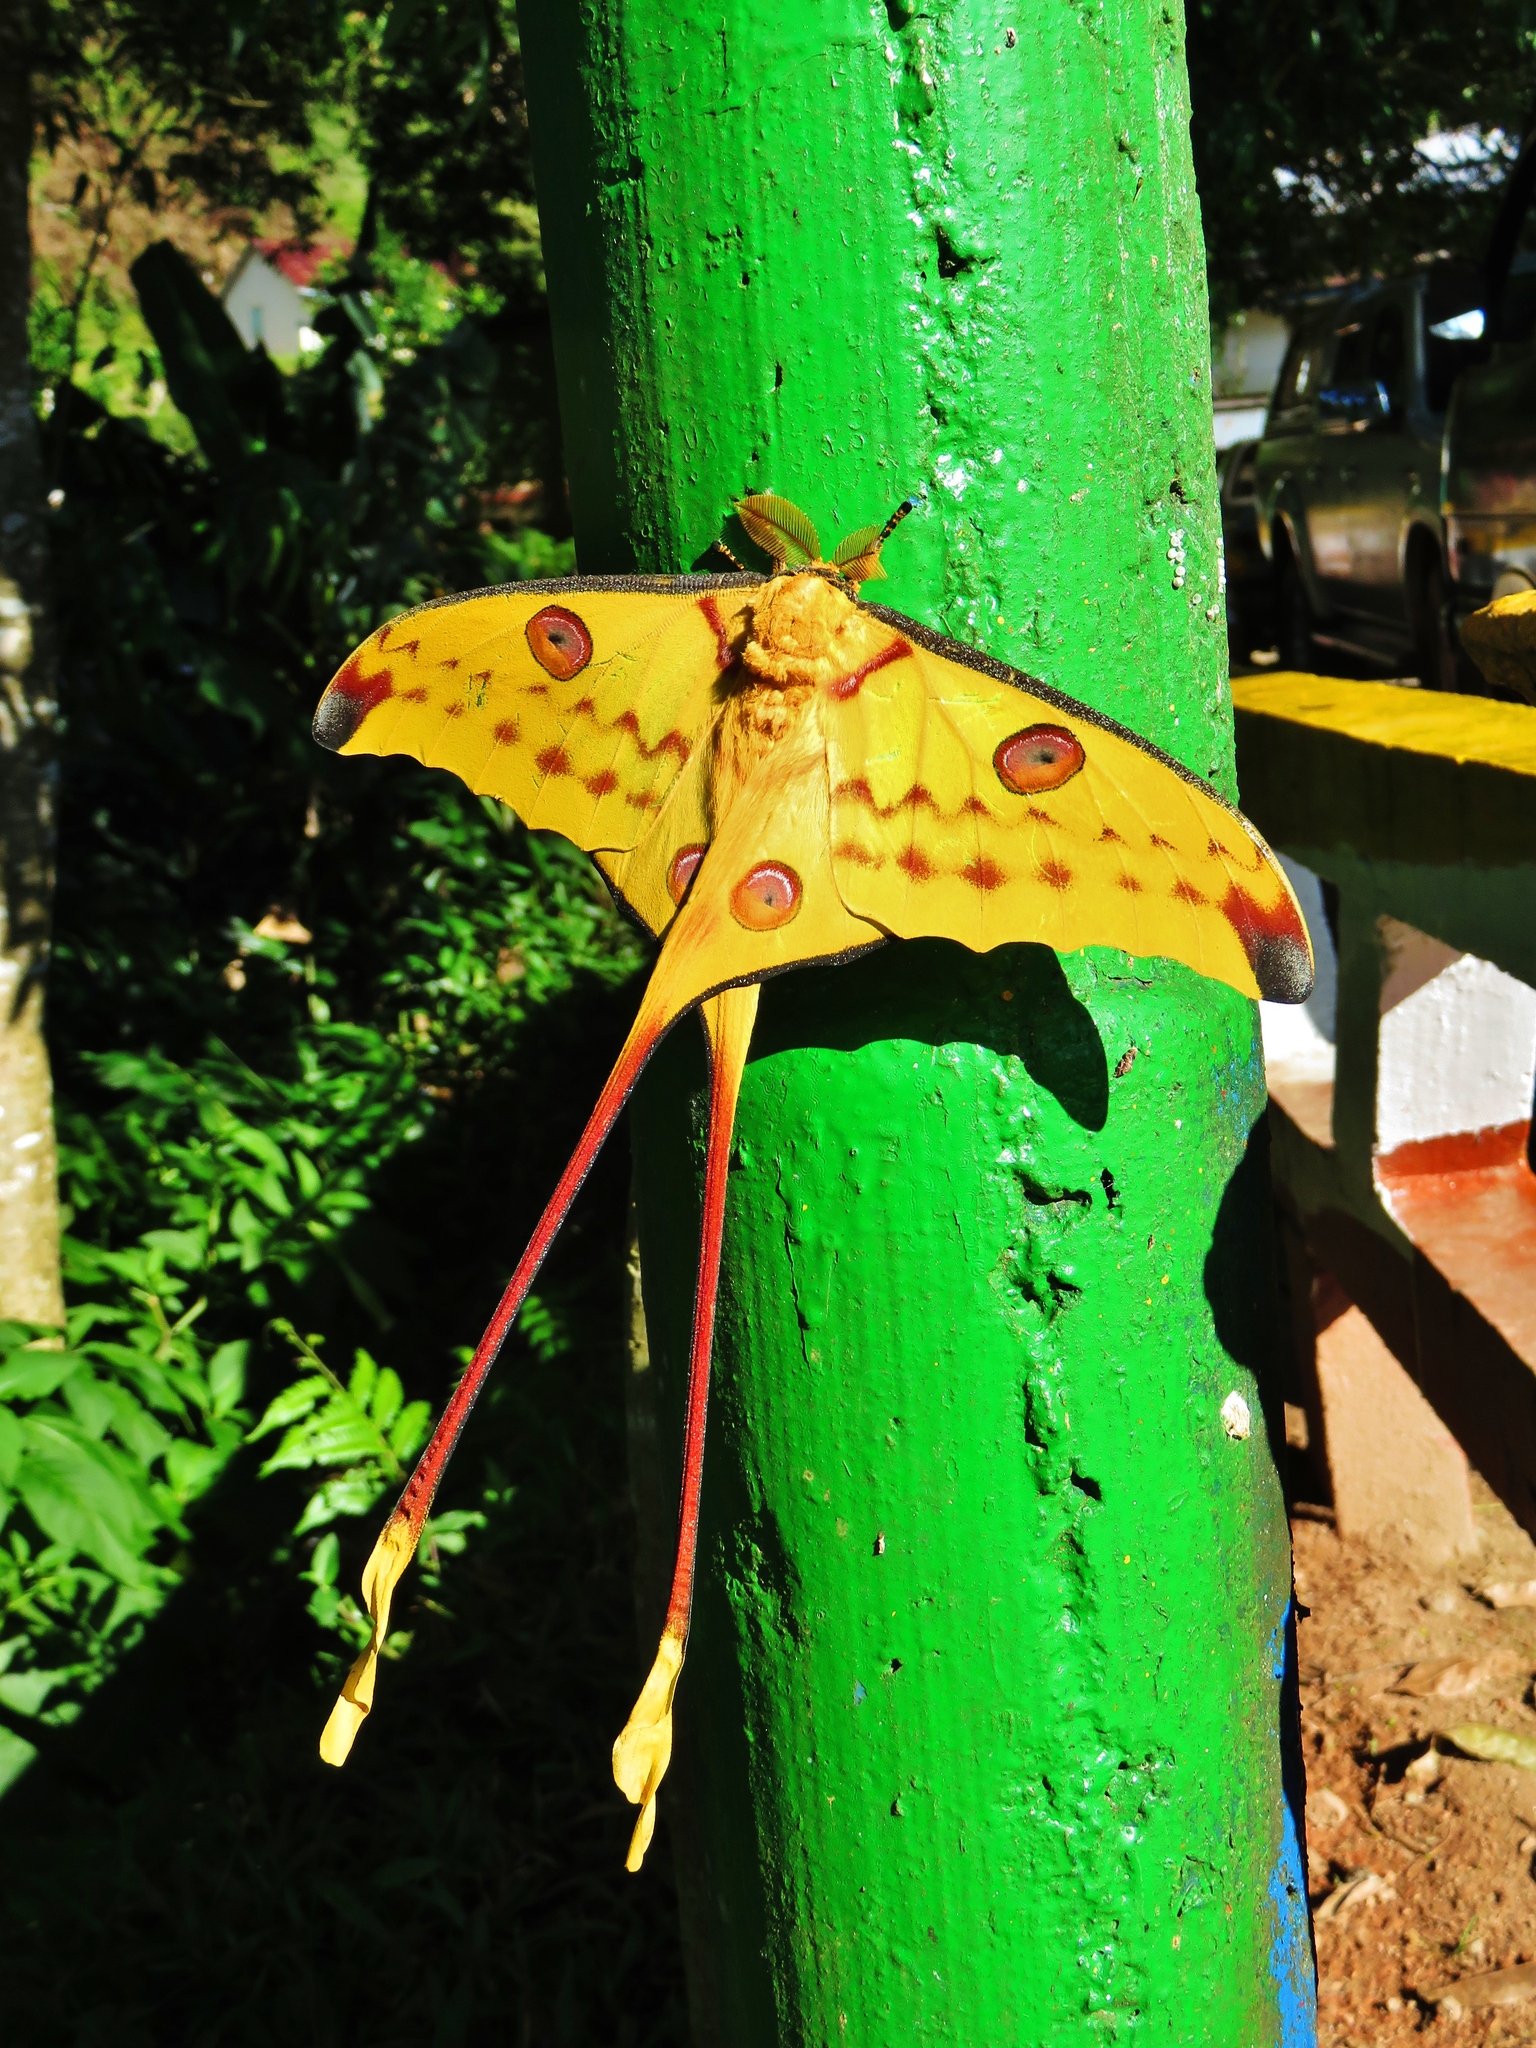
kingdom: Animalia
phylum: Arthropoda
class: Insecta
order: Lepidoptera
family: Saturniidae
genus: Argema
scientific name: Argema mittrei
